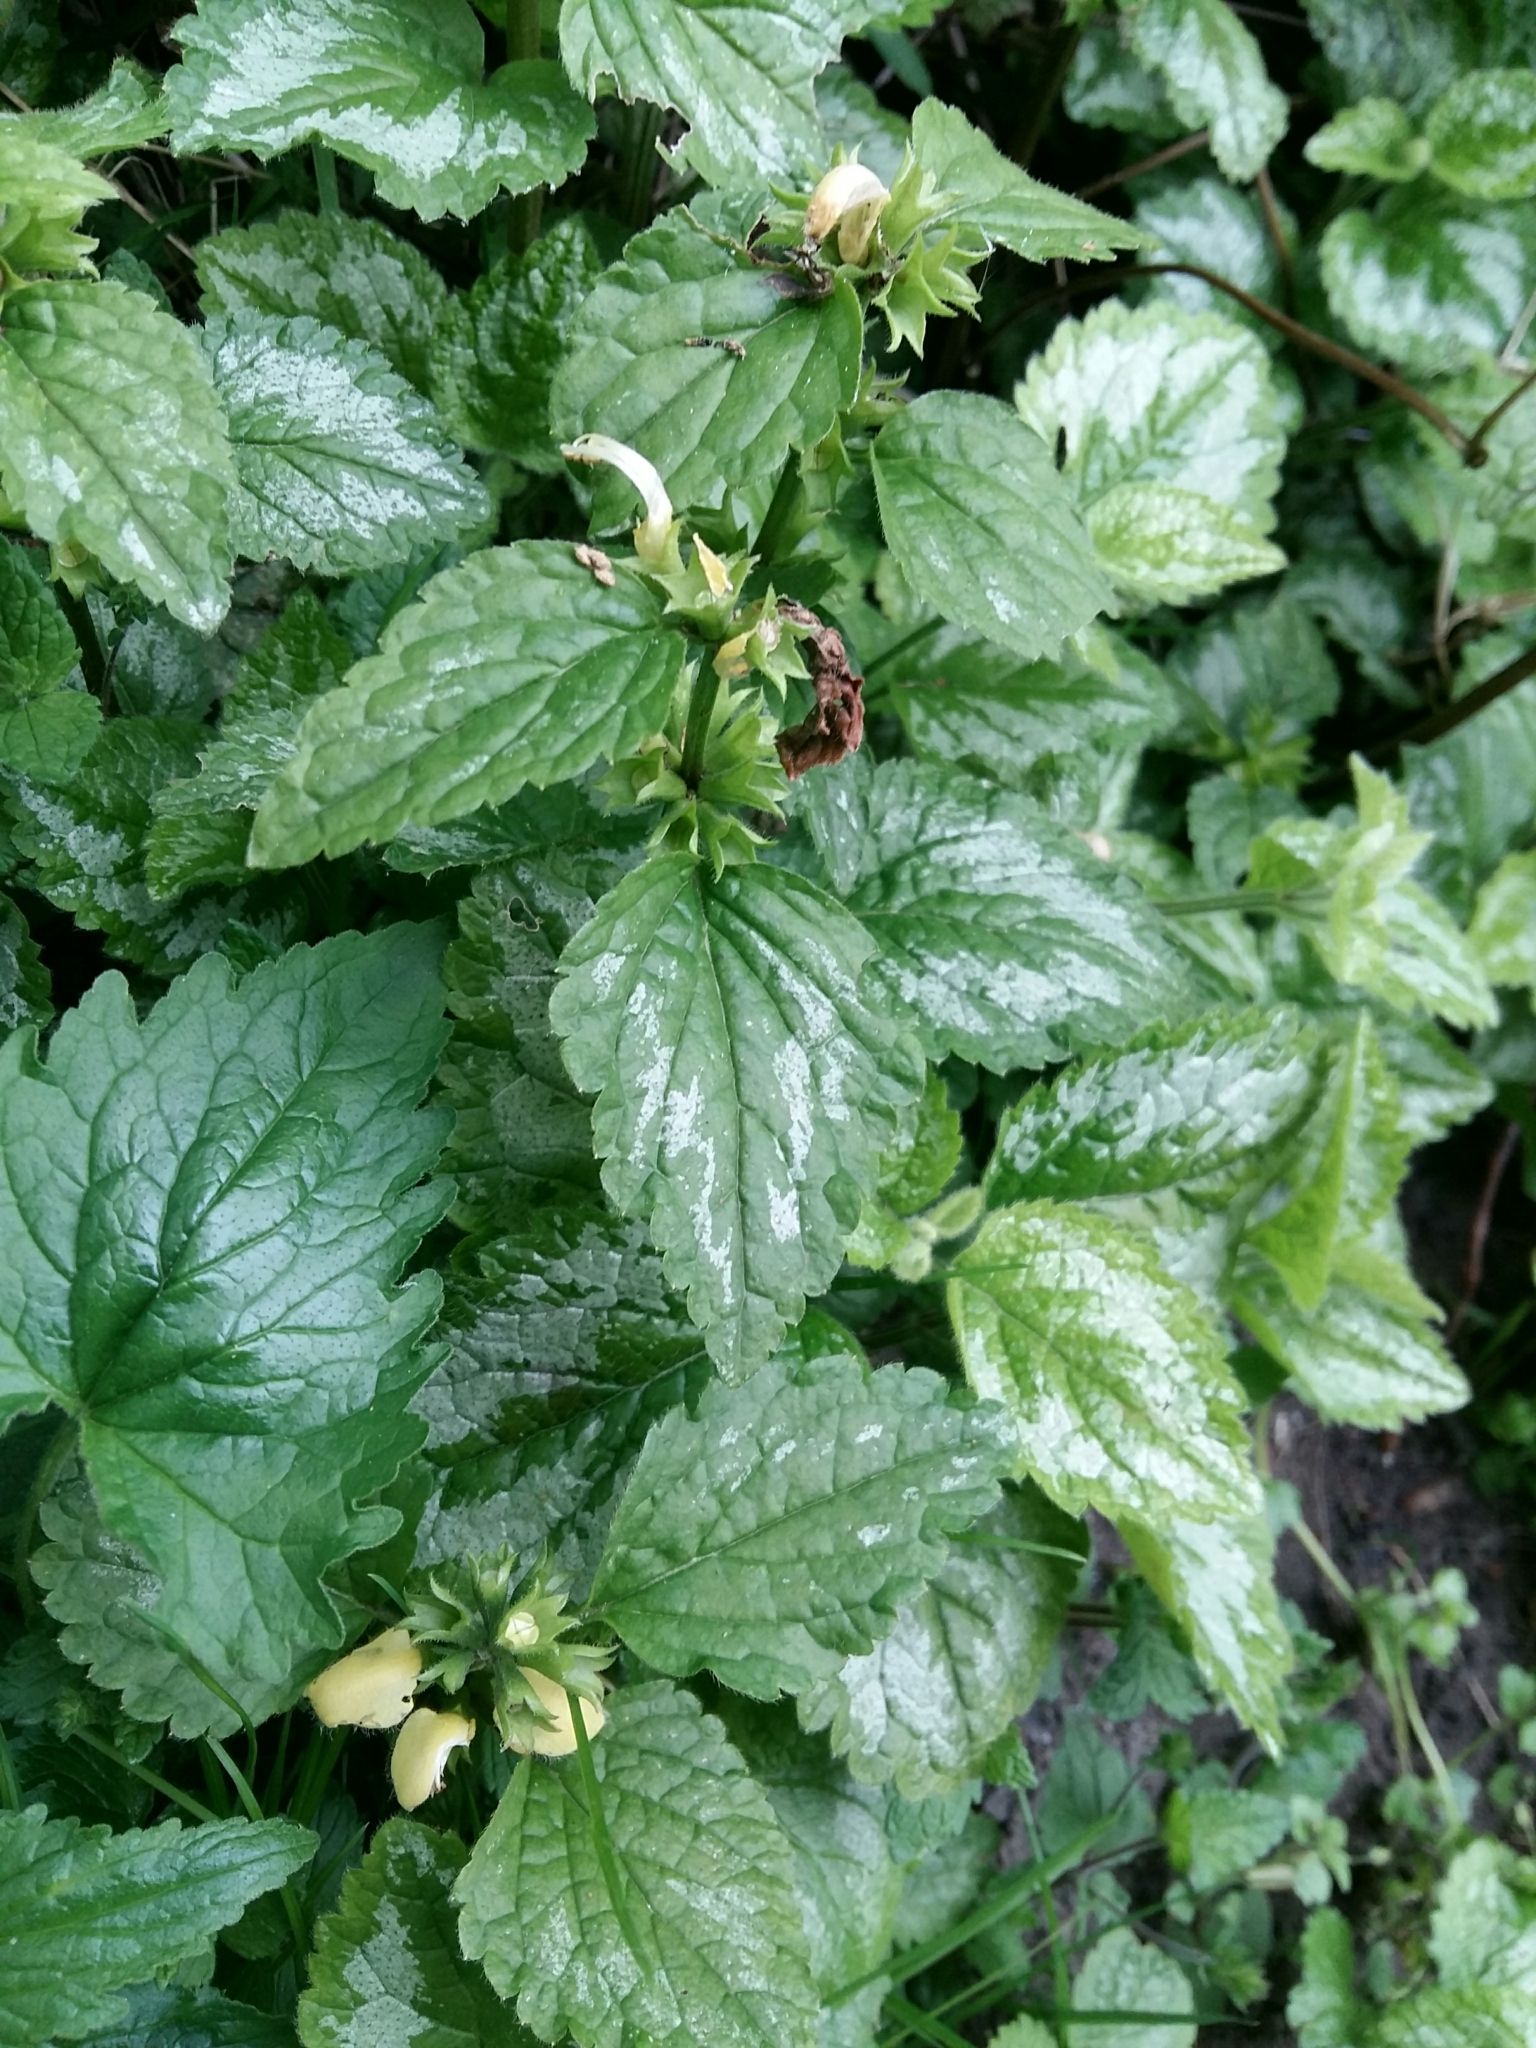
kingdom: Plantae
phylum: Tracheophyta
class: Magnoliopsida
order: Lamiales
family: Lamiaceae
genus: Lamium
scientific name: Lamium galeobdolon
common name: Yellow archangel
